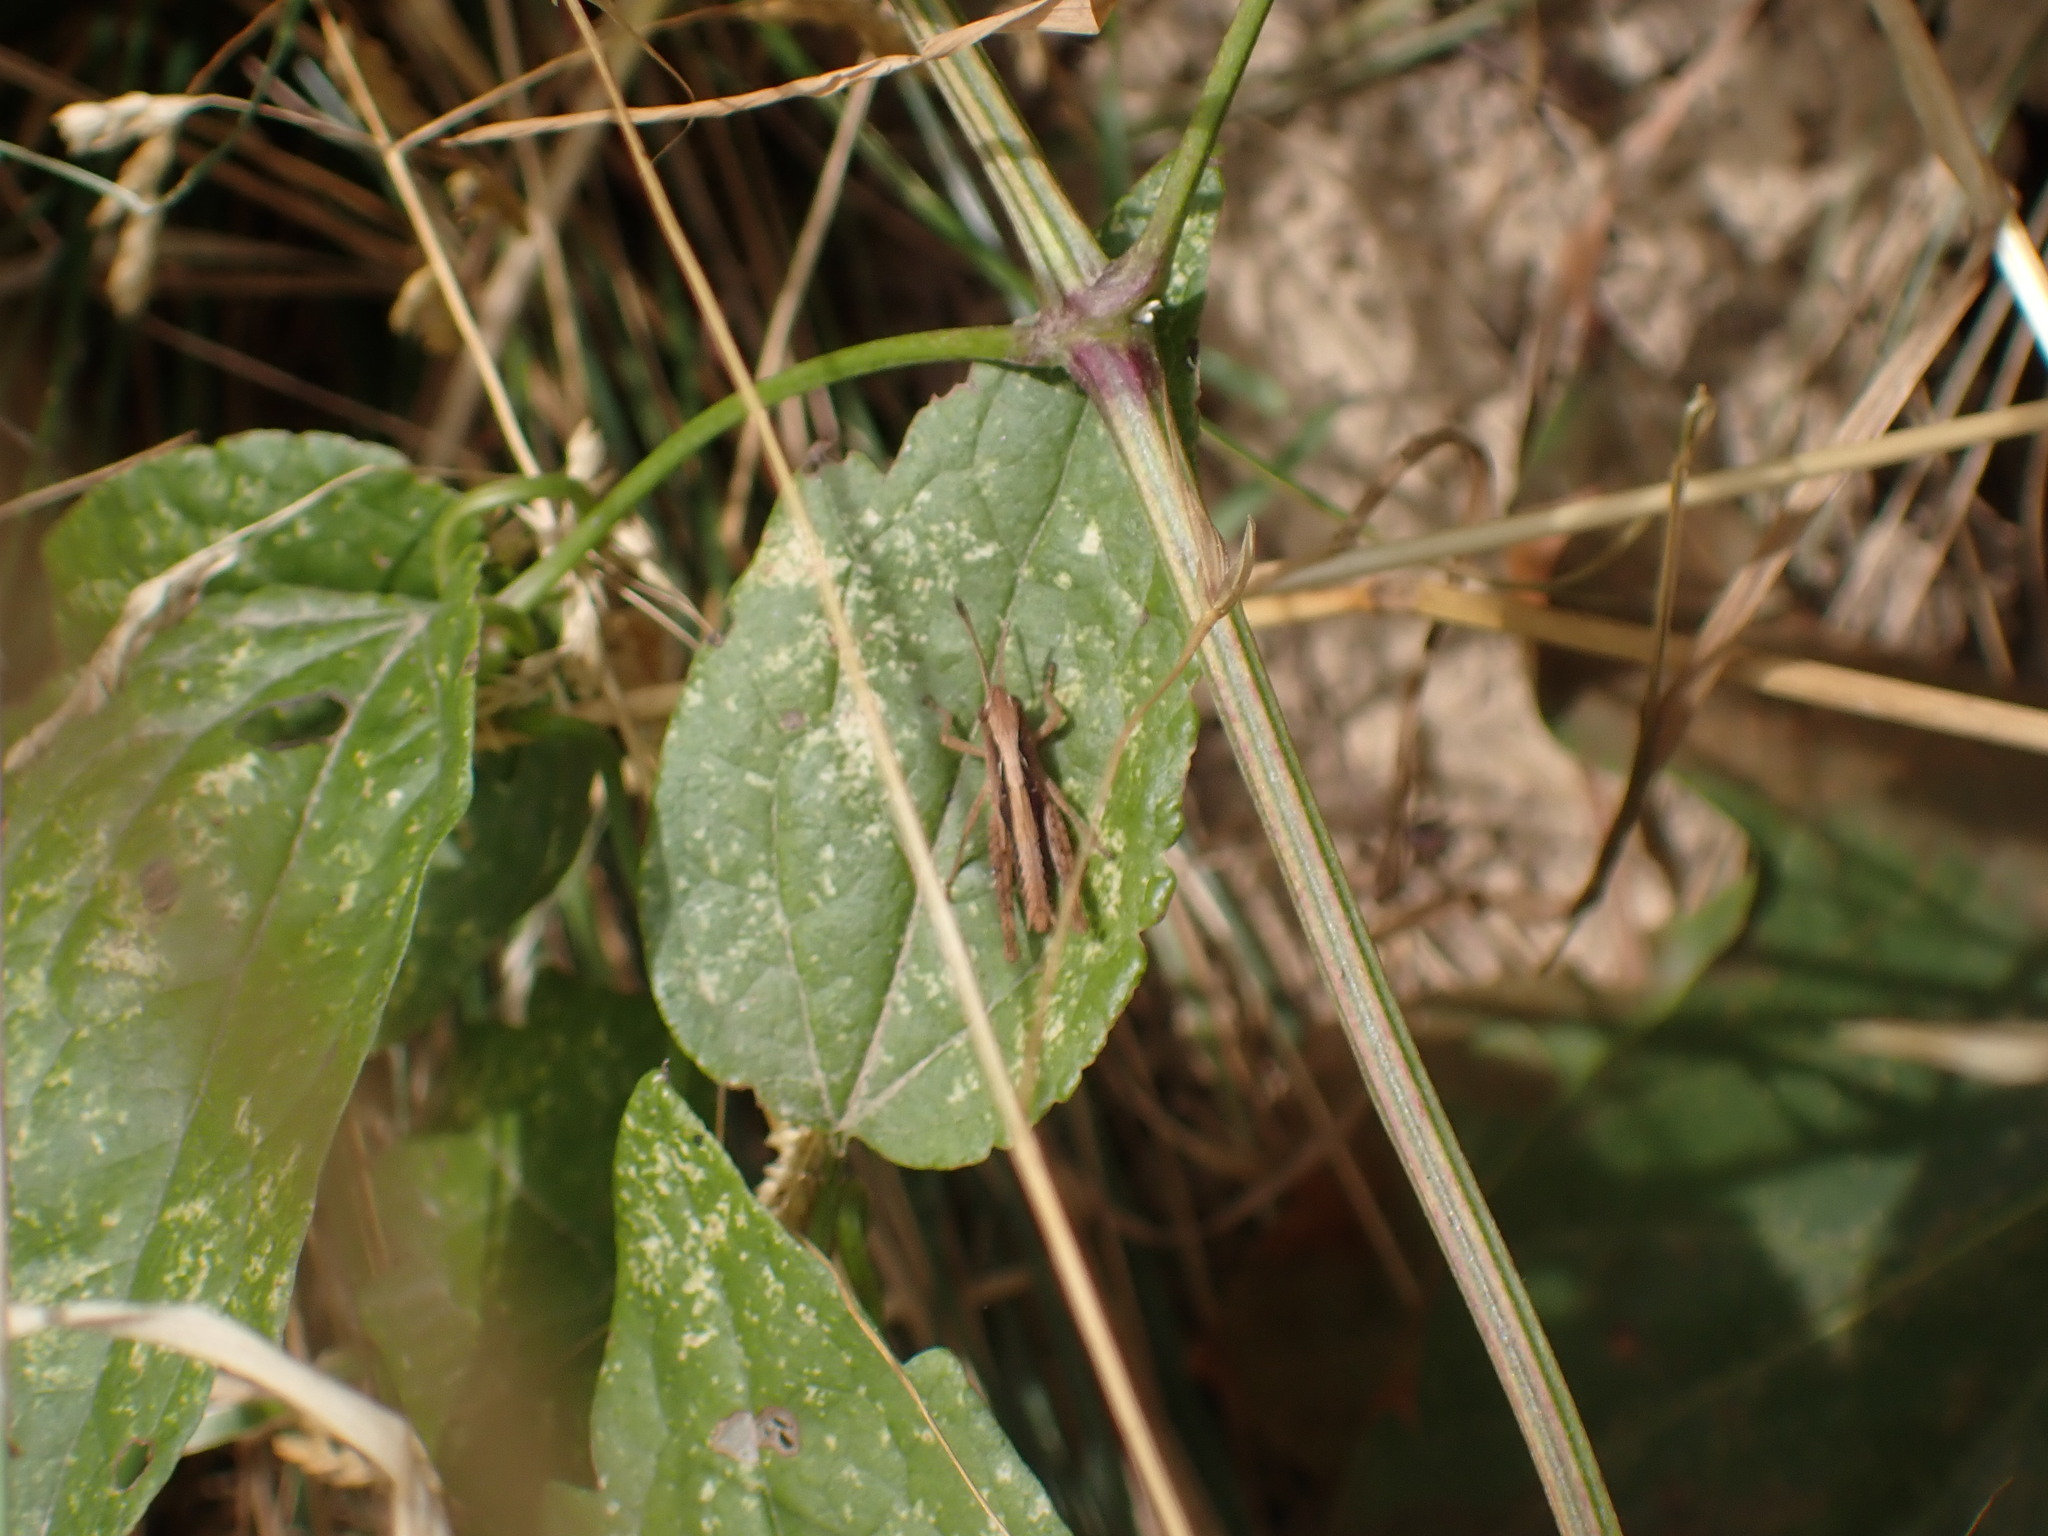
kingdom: Animalia
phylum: Arthropoda
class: Insecta
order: Orthoptera
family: Acrididae
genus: Gomphocerippus
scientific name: Gomphocerippus rufus
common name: Rufous grasshopper
